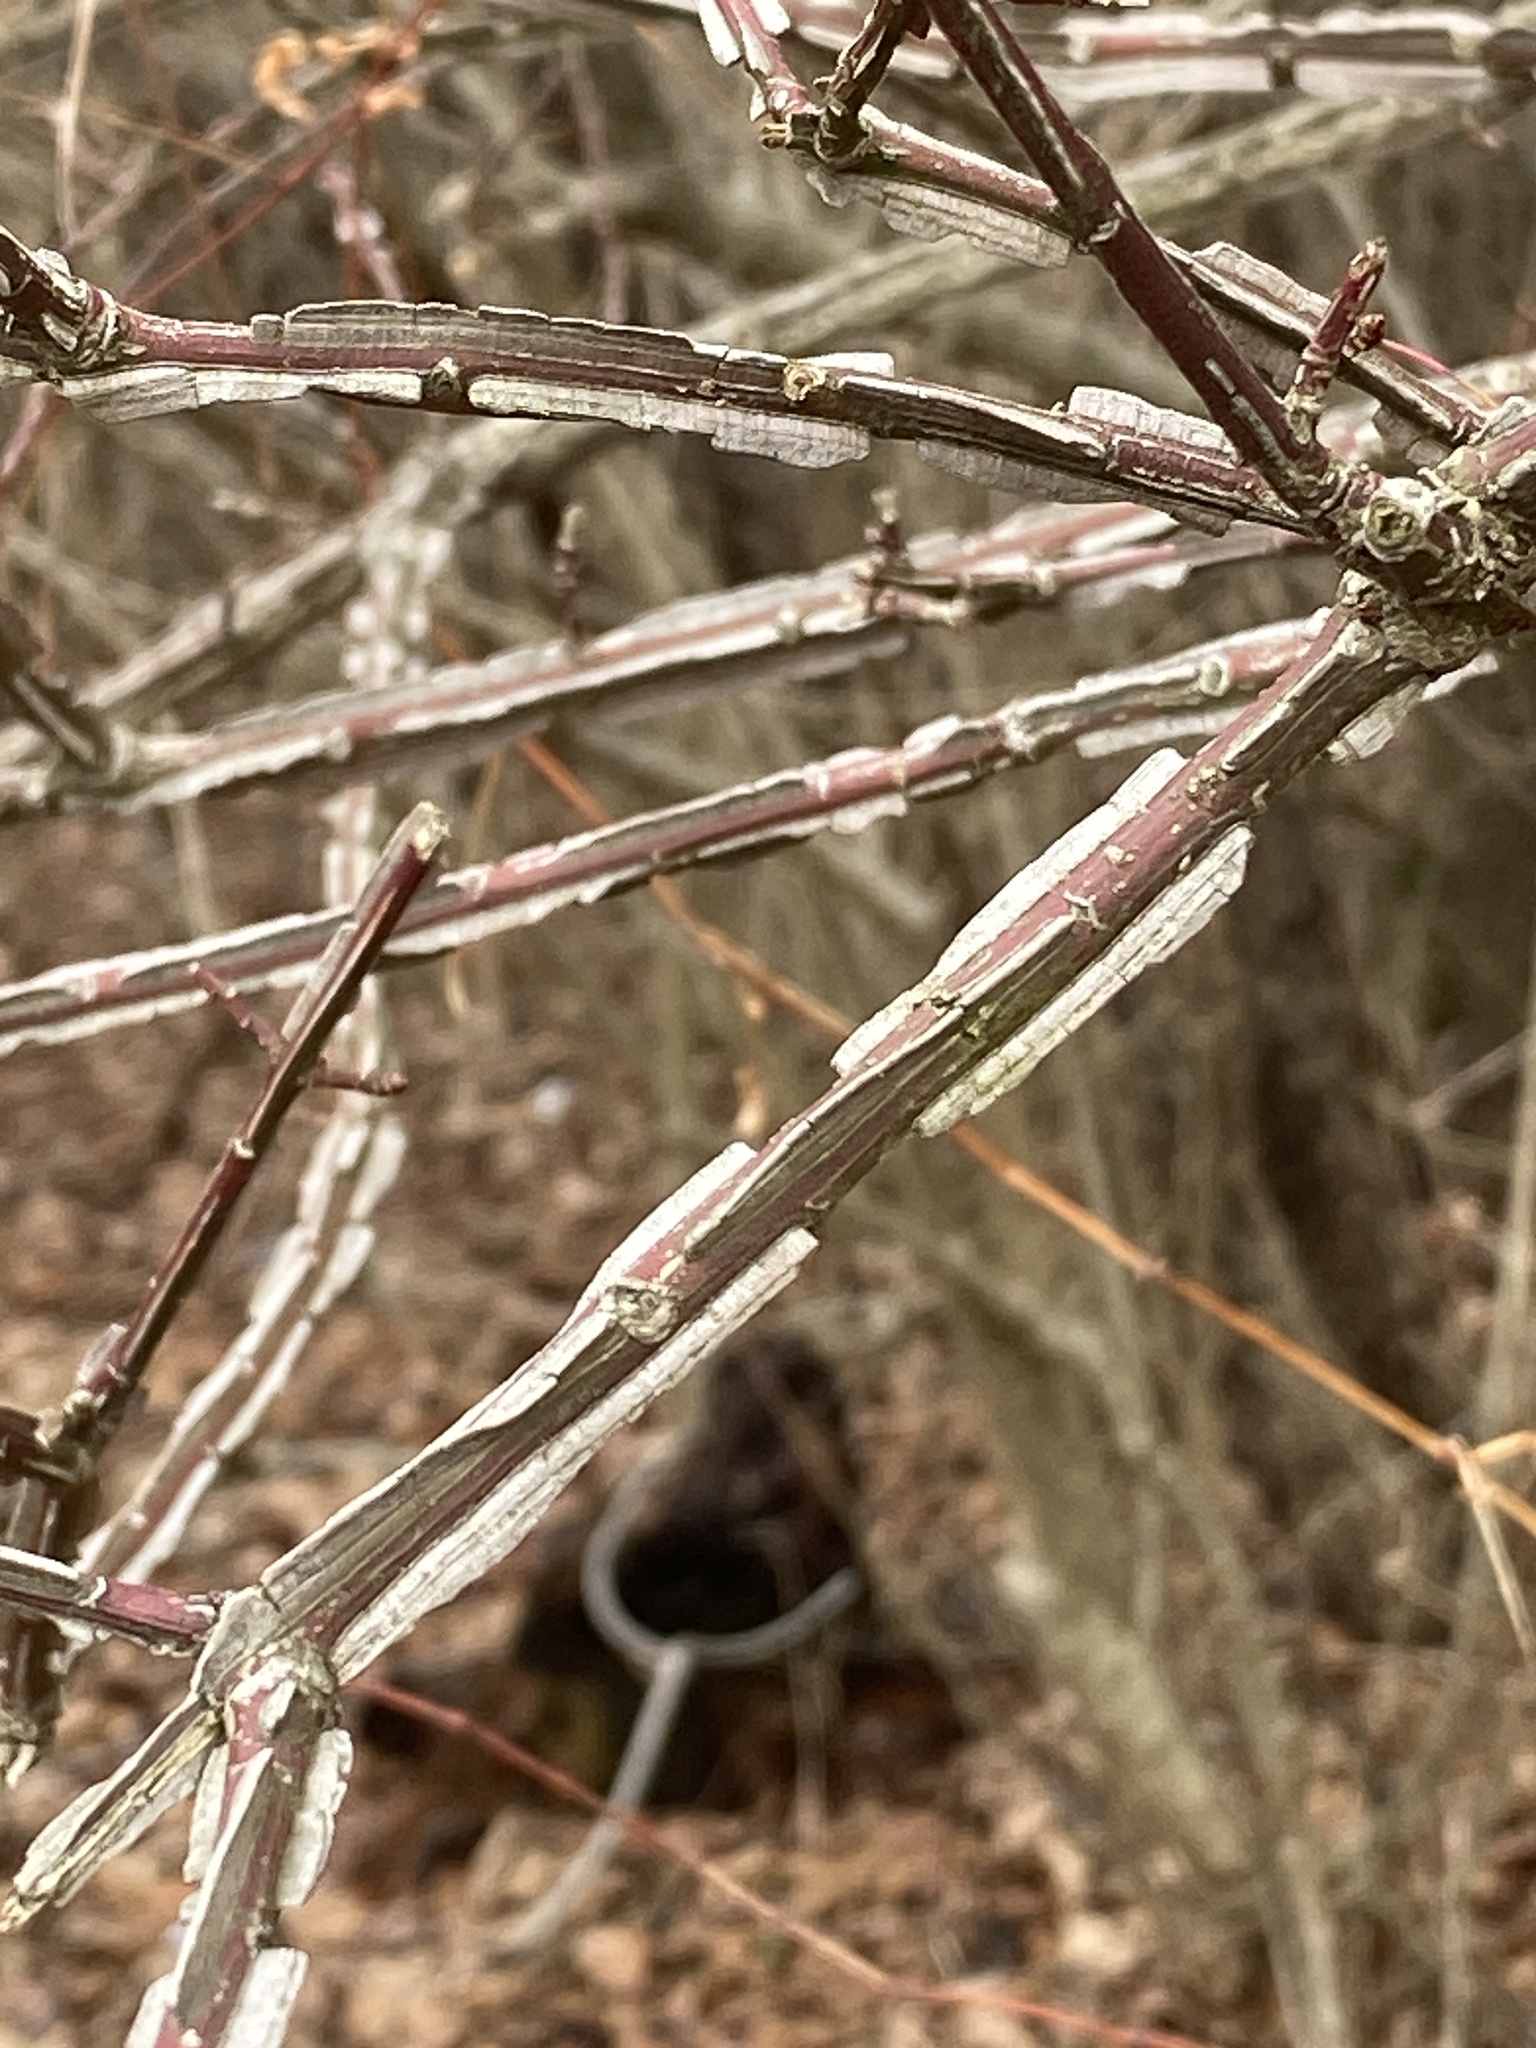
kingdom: Plantae
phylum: Tracheophyta
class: Magnoliopsida
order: Celastrales
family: Celastraceae
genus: Euonymus
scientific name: Euonymus alatus
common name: Winged euonymus
